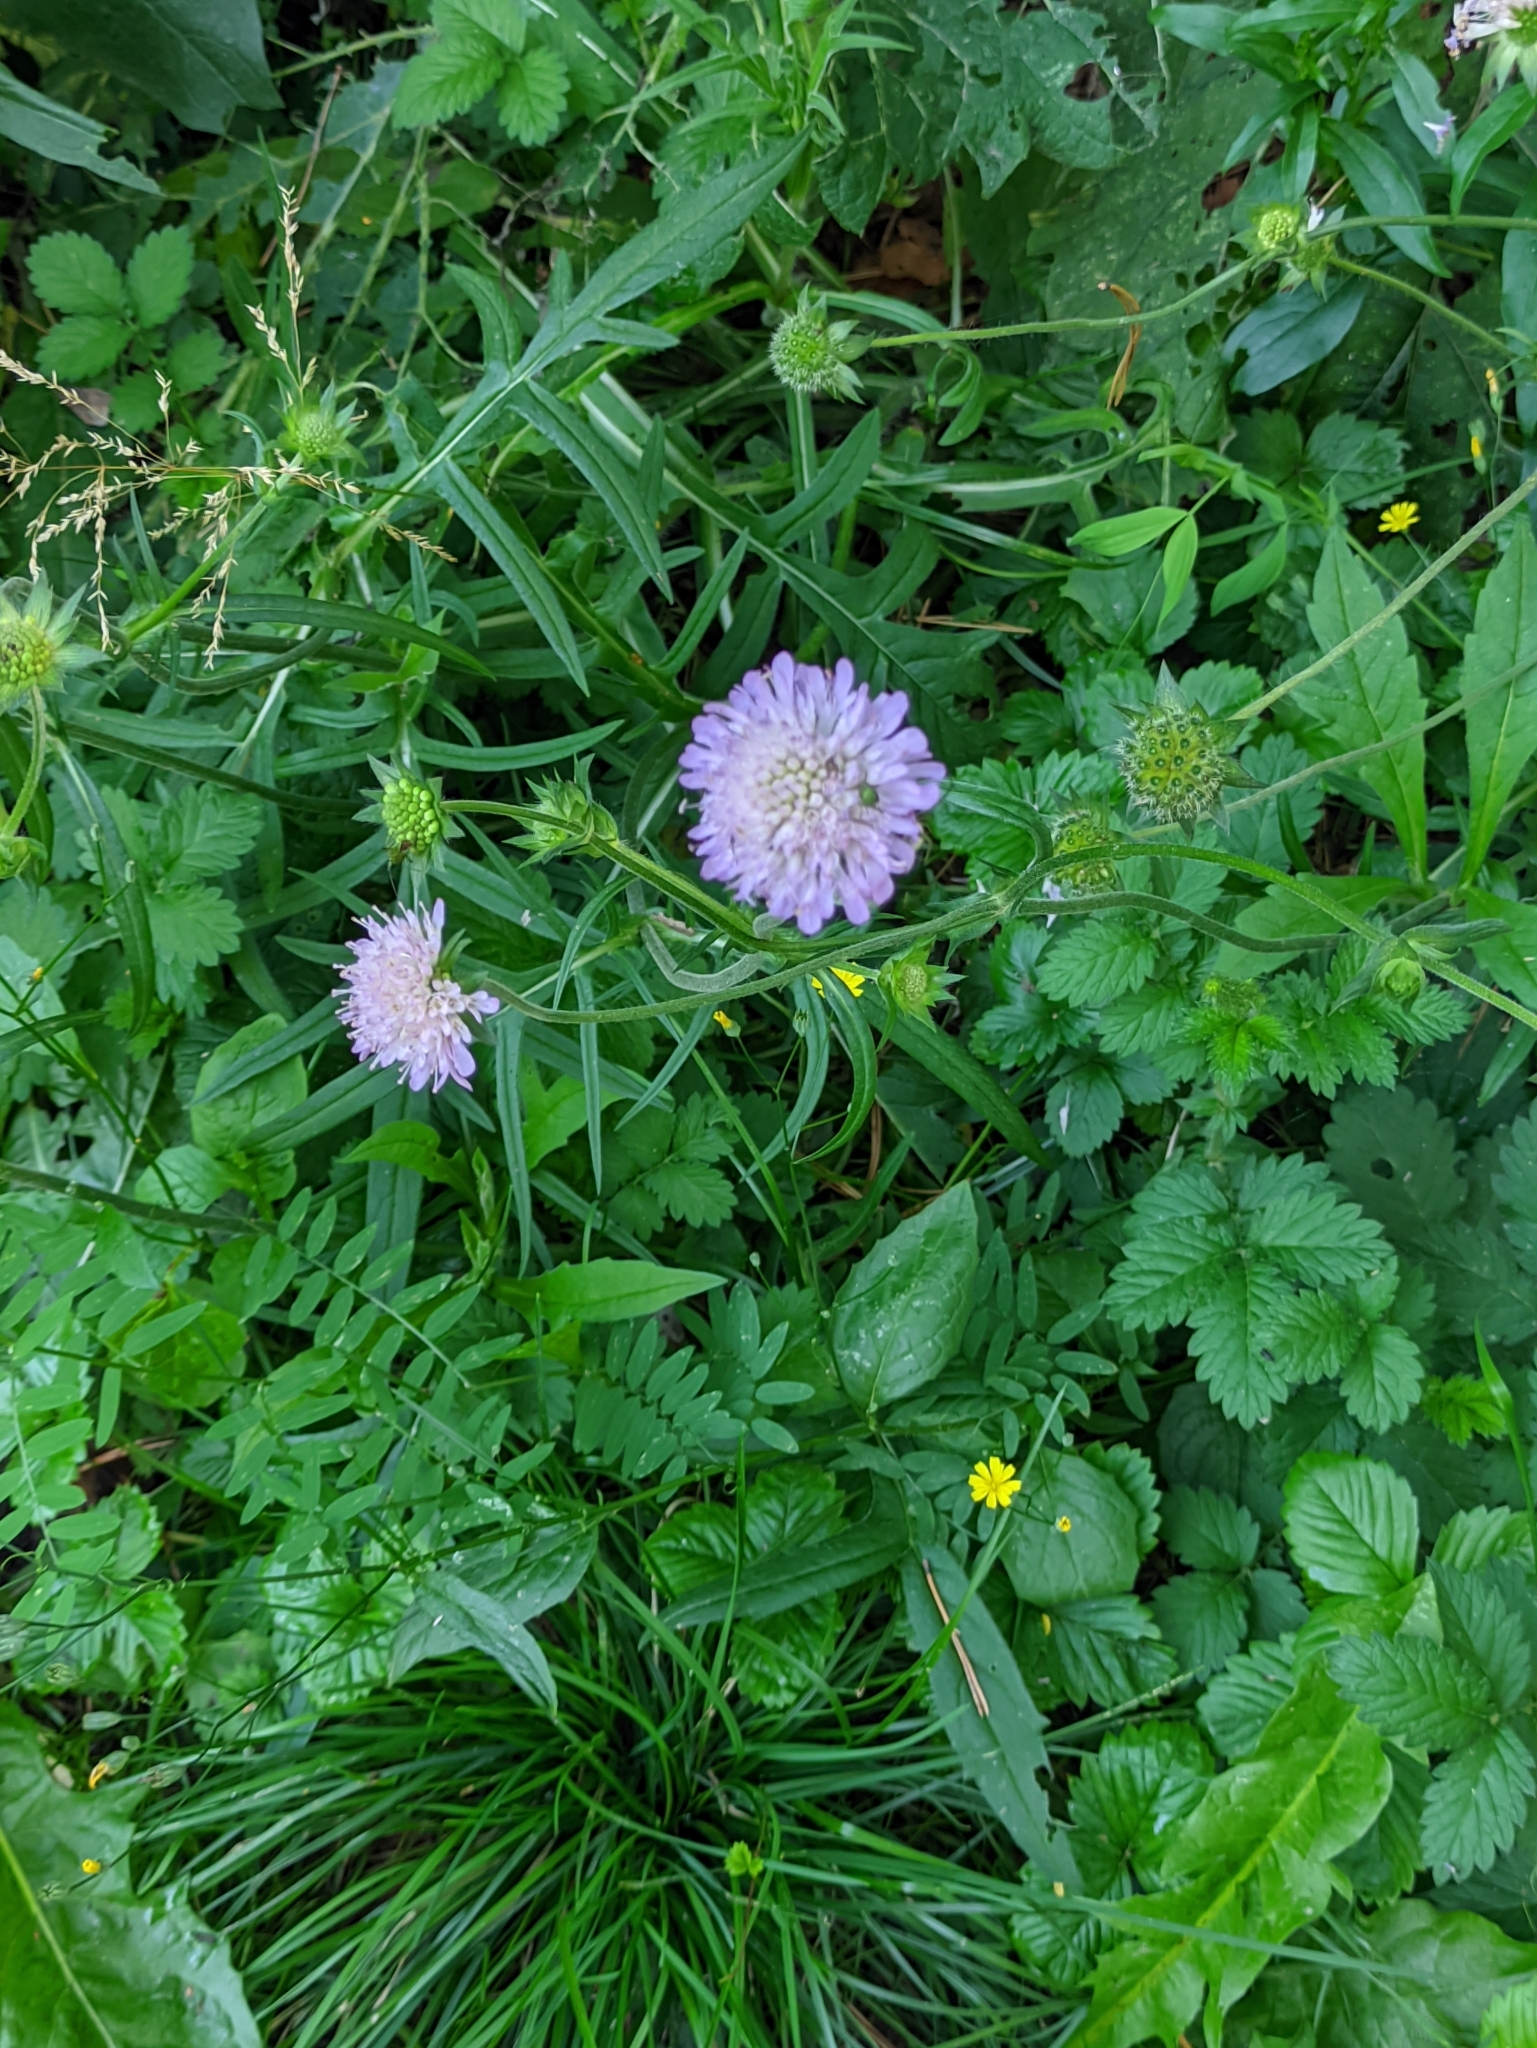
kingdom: Plantae
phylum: Tracheophyta
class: Magnoliopsida
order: Dipsacales
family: Caprifoliaceae
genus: Knautia
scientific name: Knautia arvensis
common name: Field scabiosa
